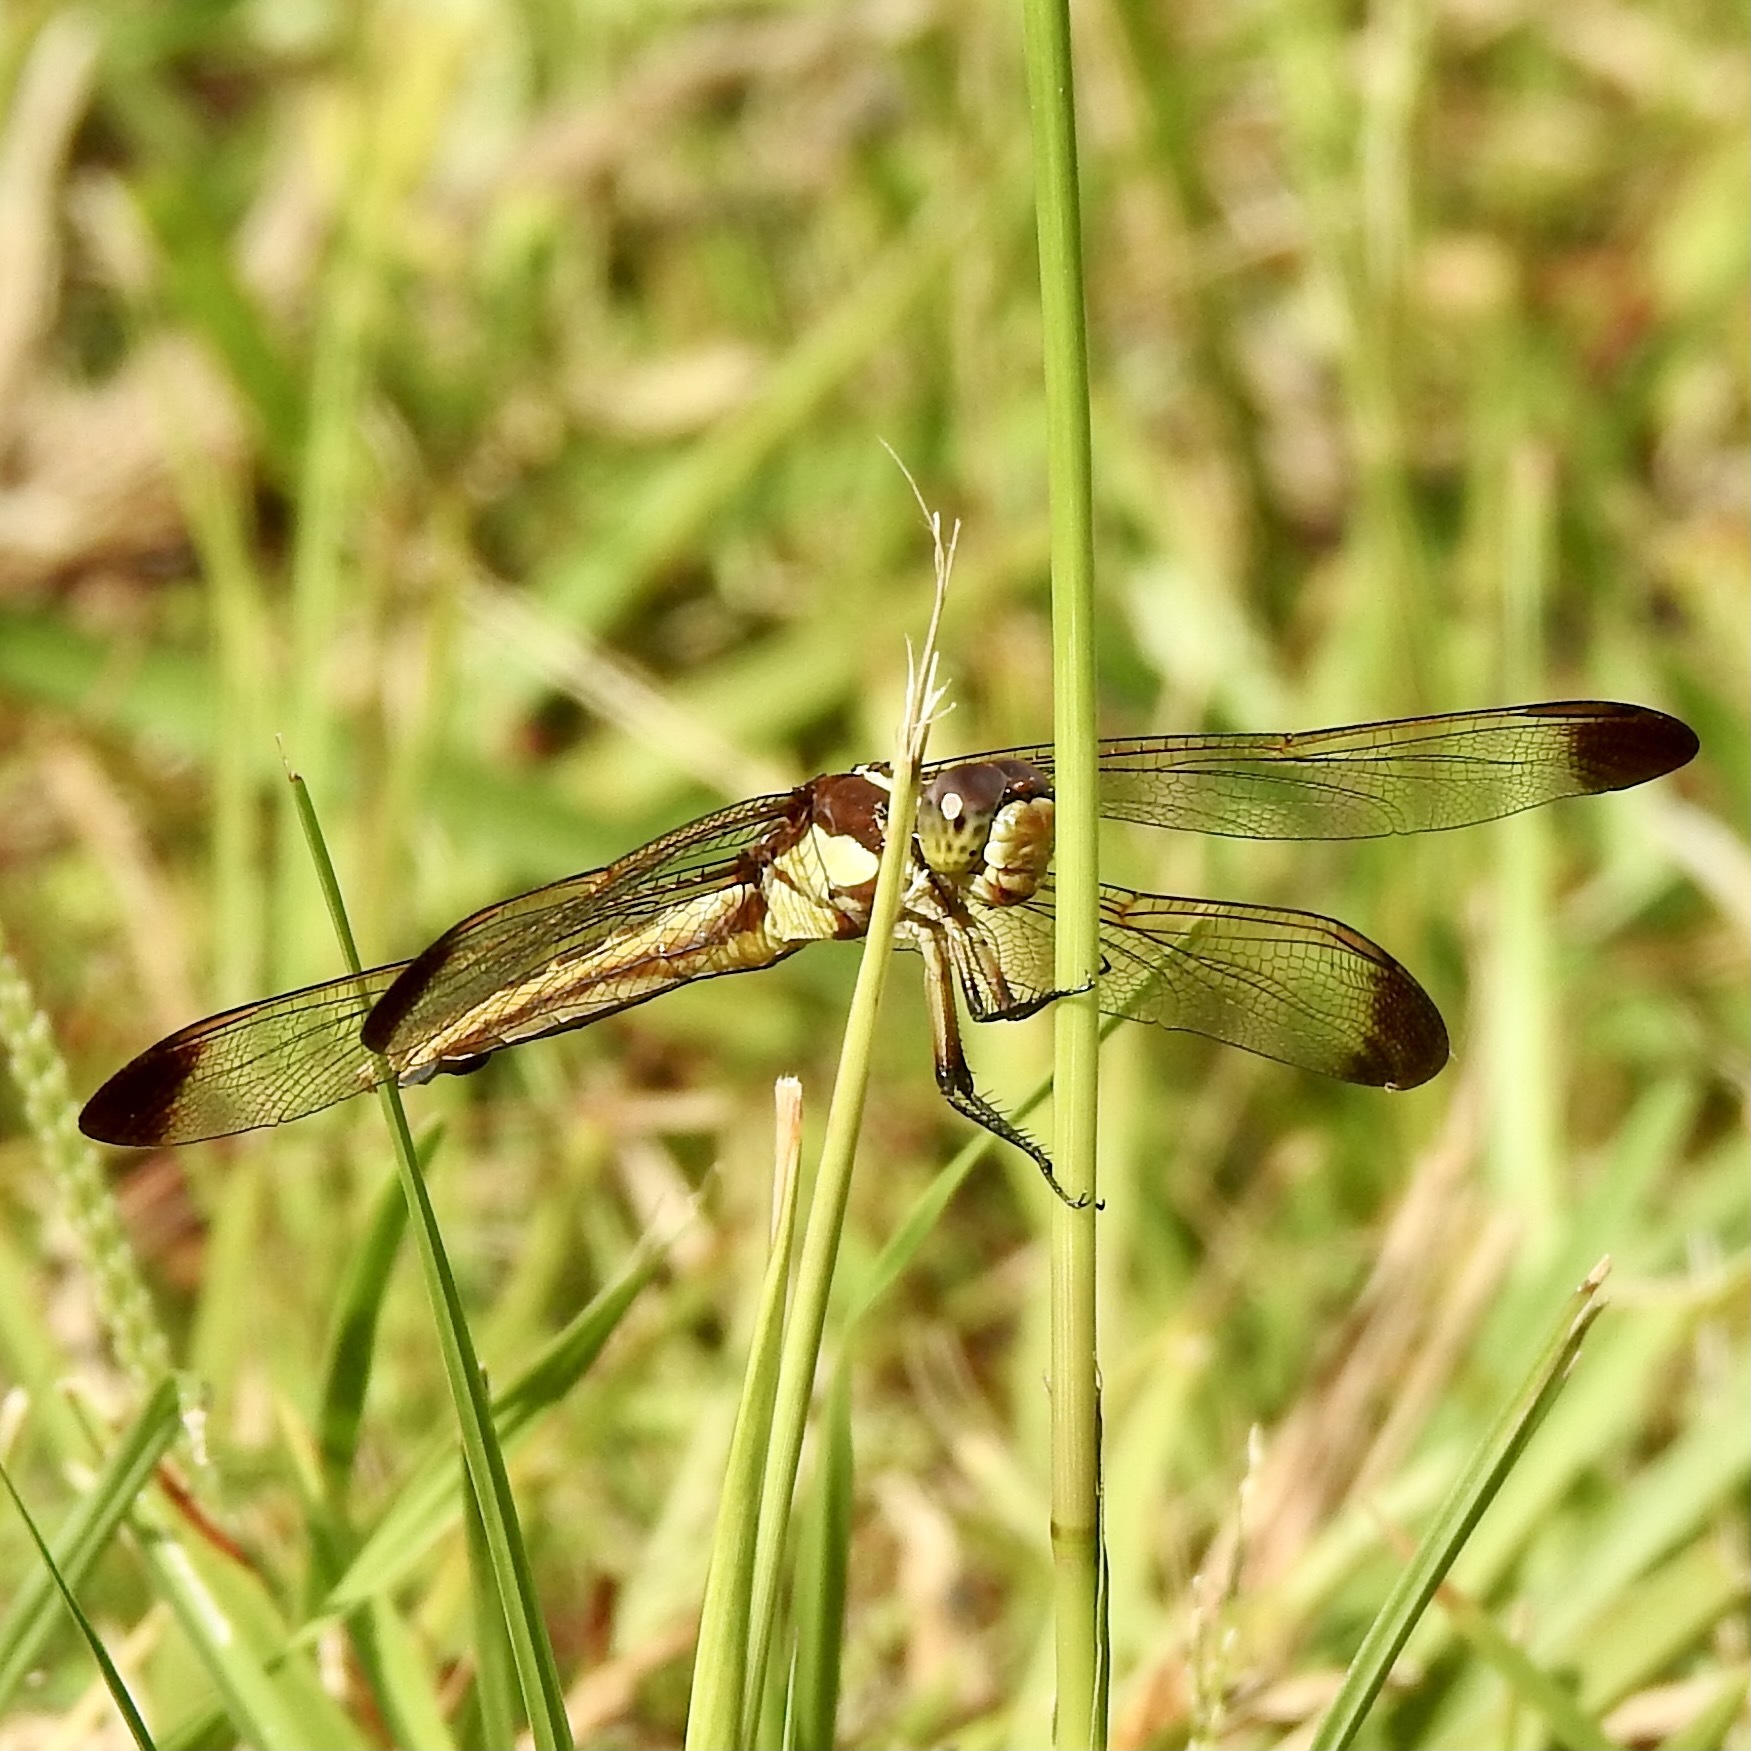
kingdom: Animalia
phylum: Arthropoda
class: Insecta
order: Odonata
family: Libellulidae
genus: Libellula
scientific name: Libellula flavida
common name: Yellow-sided skimmer
